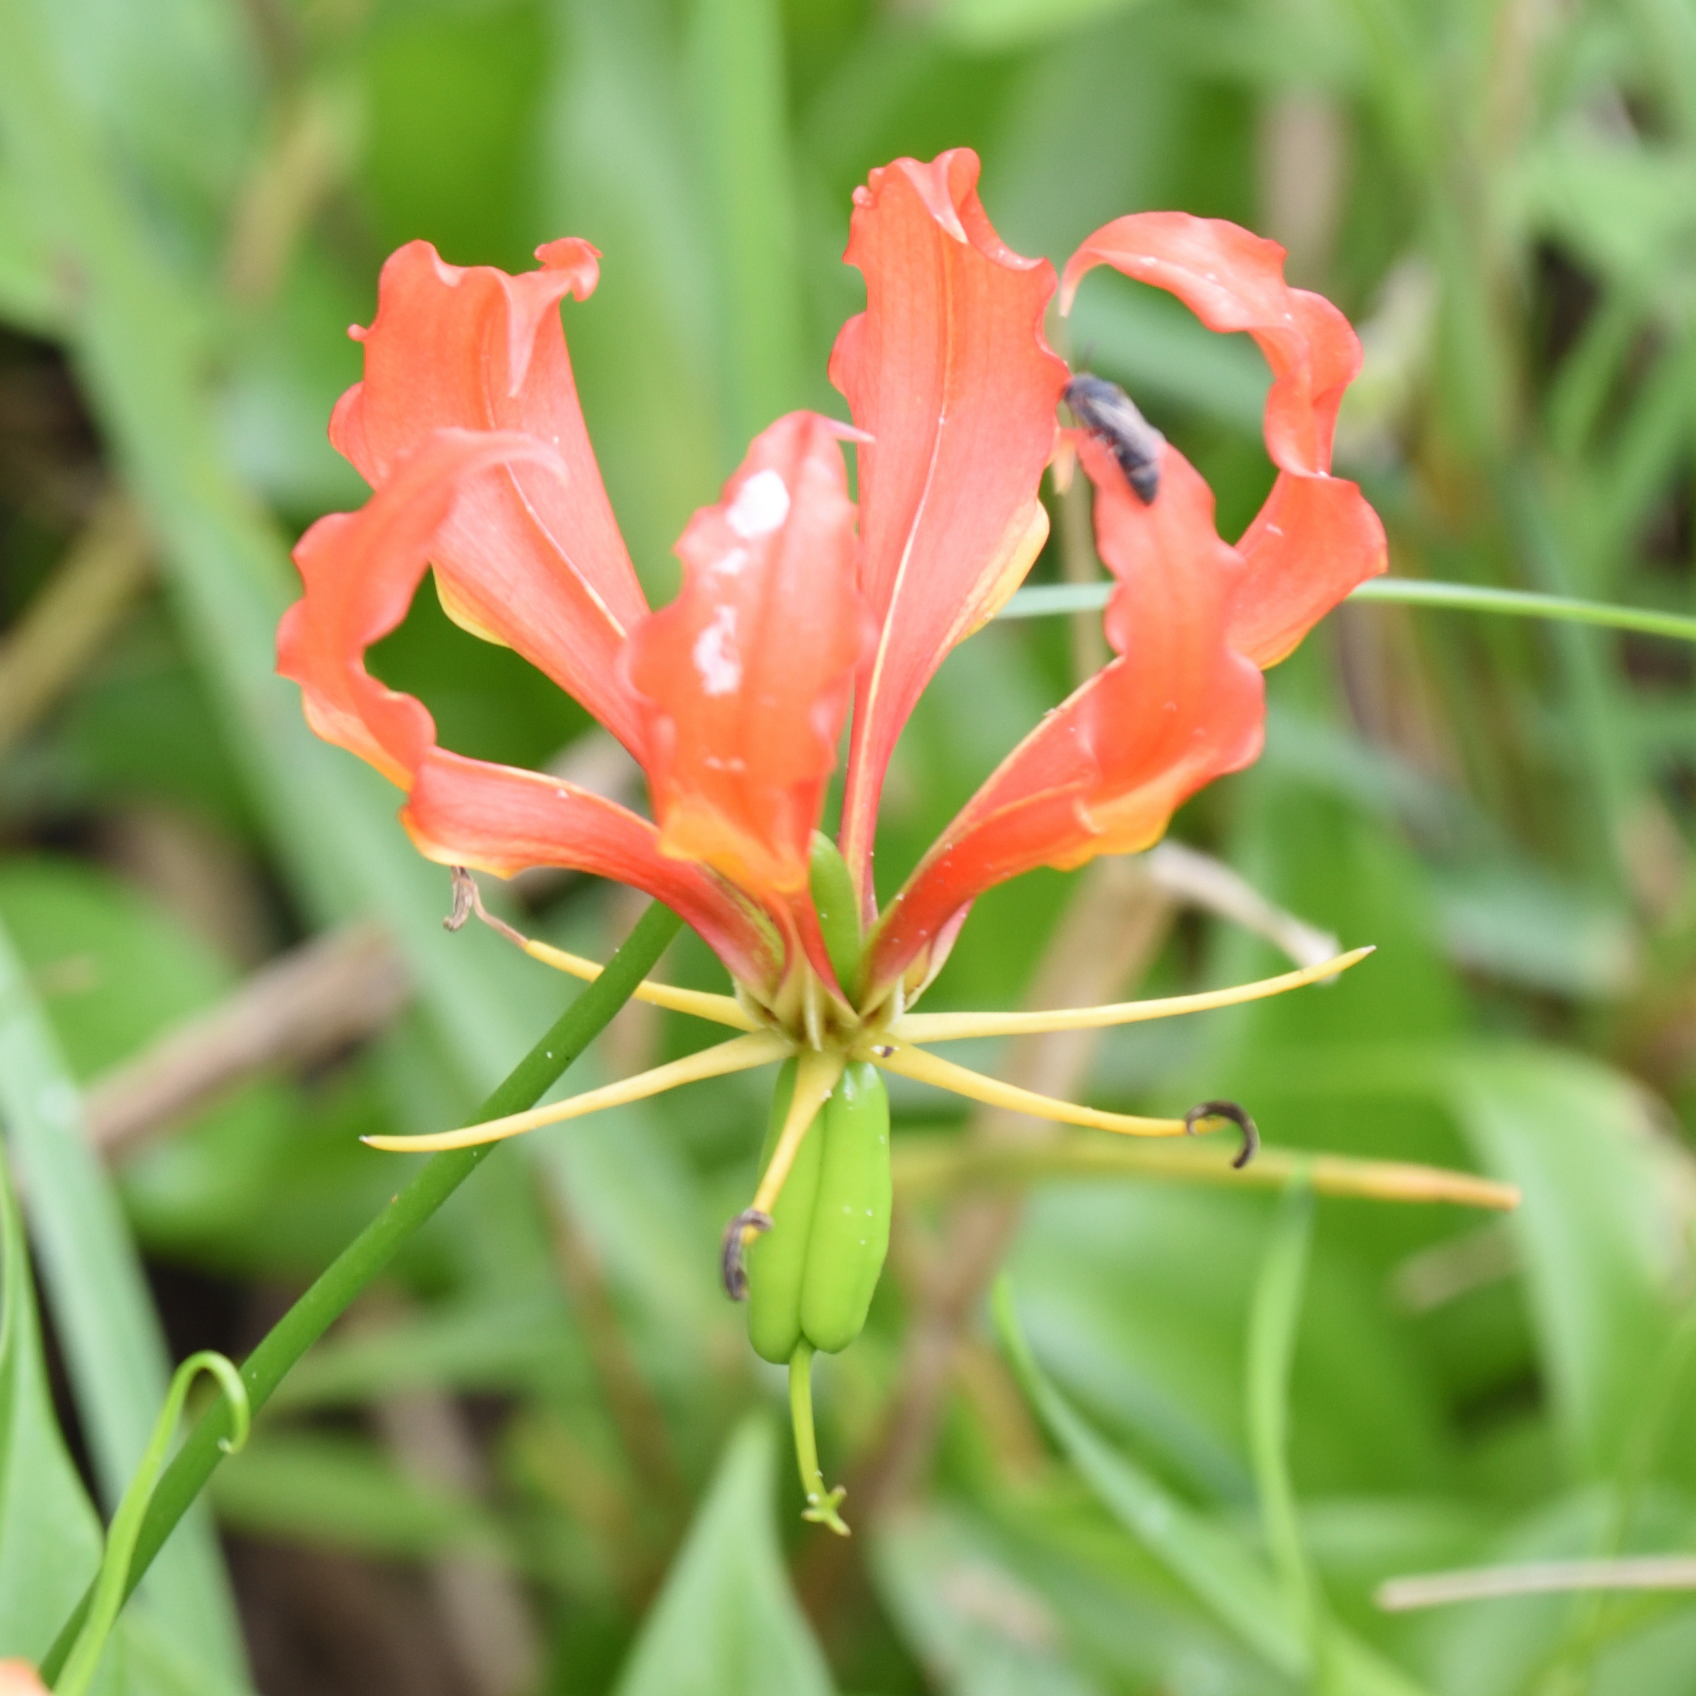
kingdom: Plantae
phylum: Tracheophyta
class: Liliopsida
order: Liliales
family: Colchicaceae
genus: Gloriosa
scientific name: Gloriosa superba
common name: Flame lily
